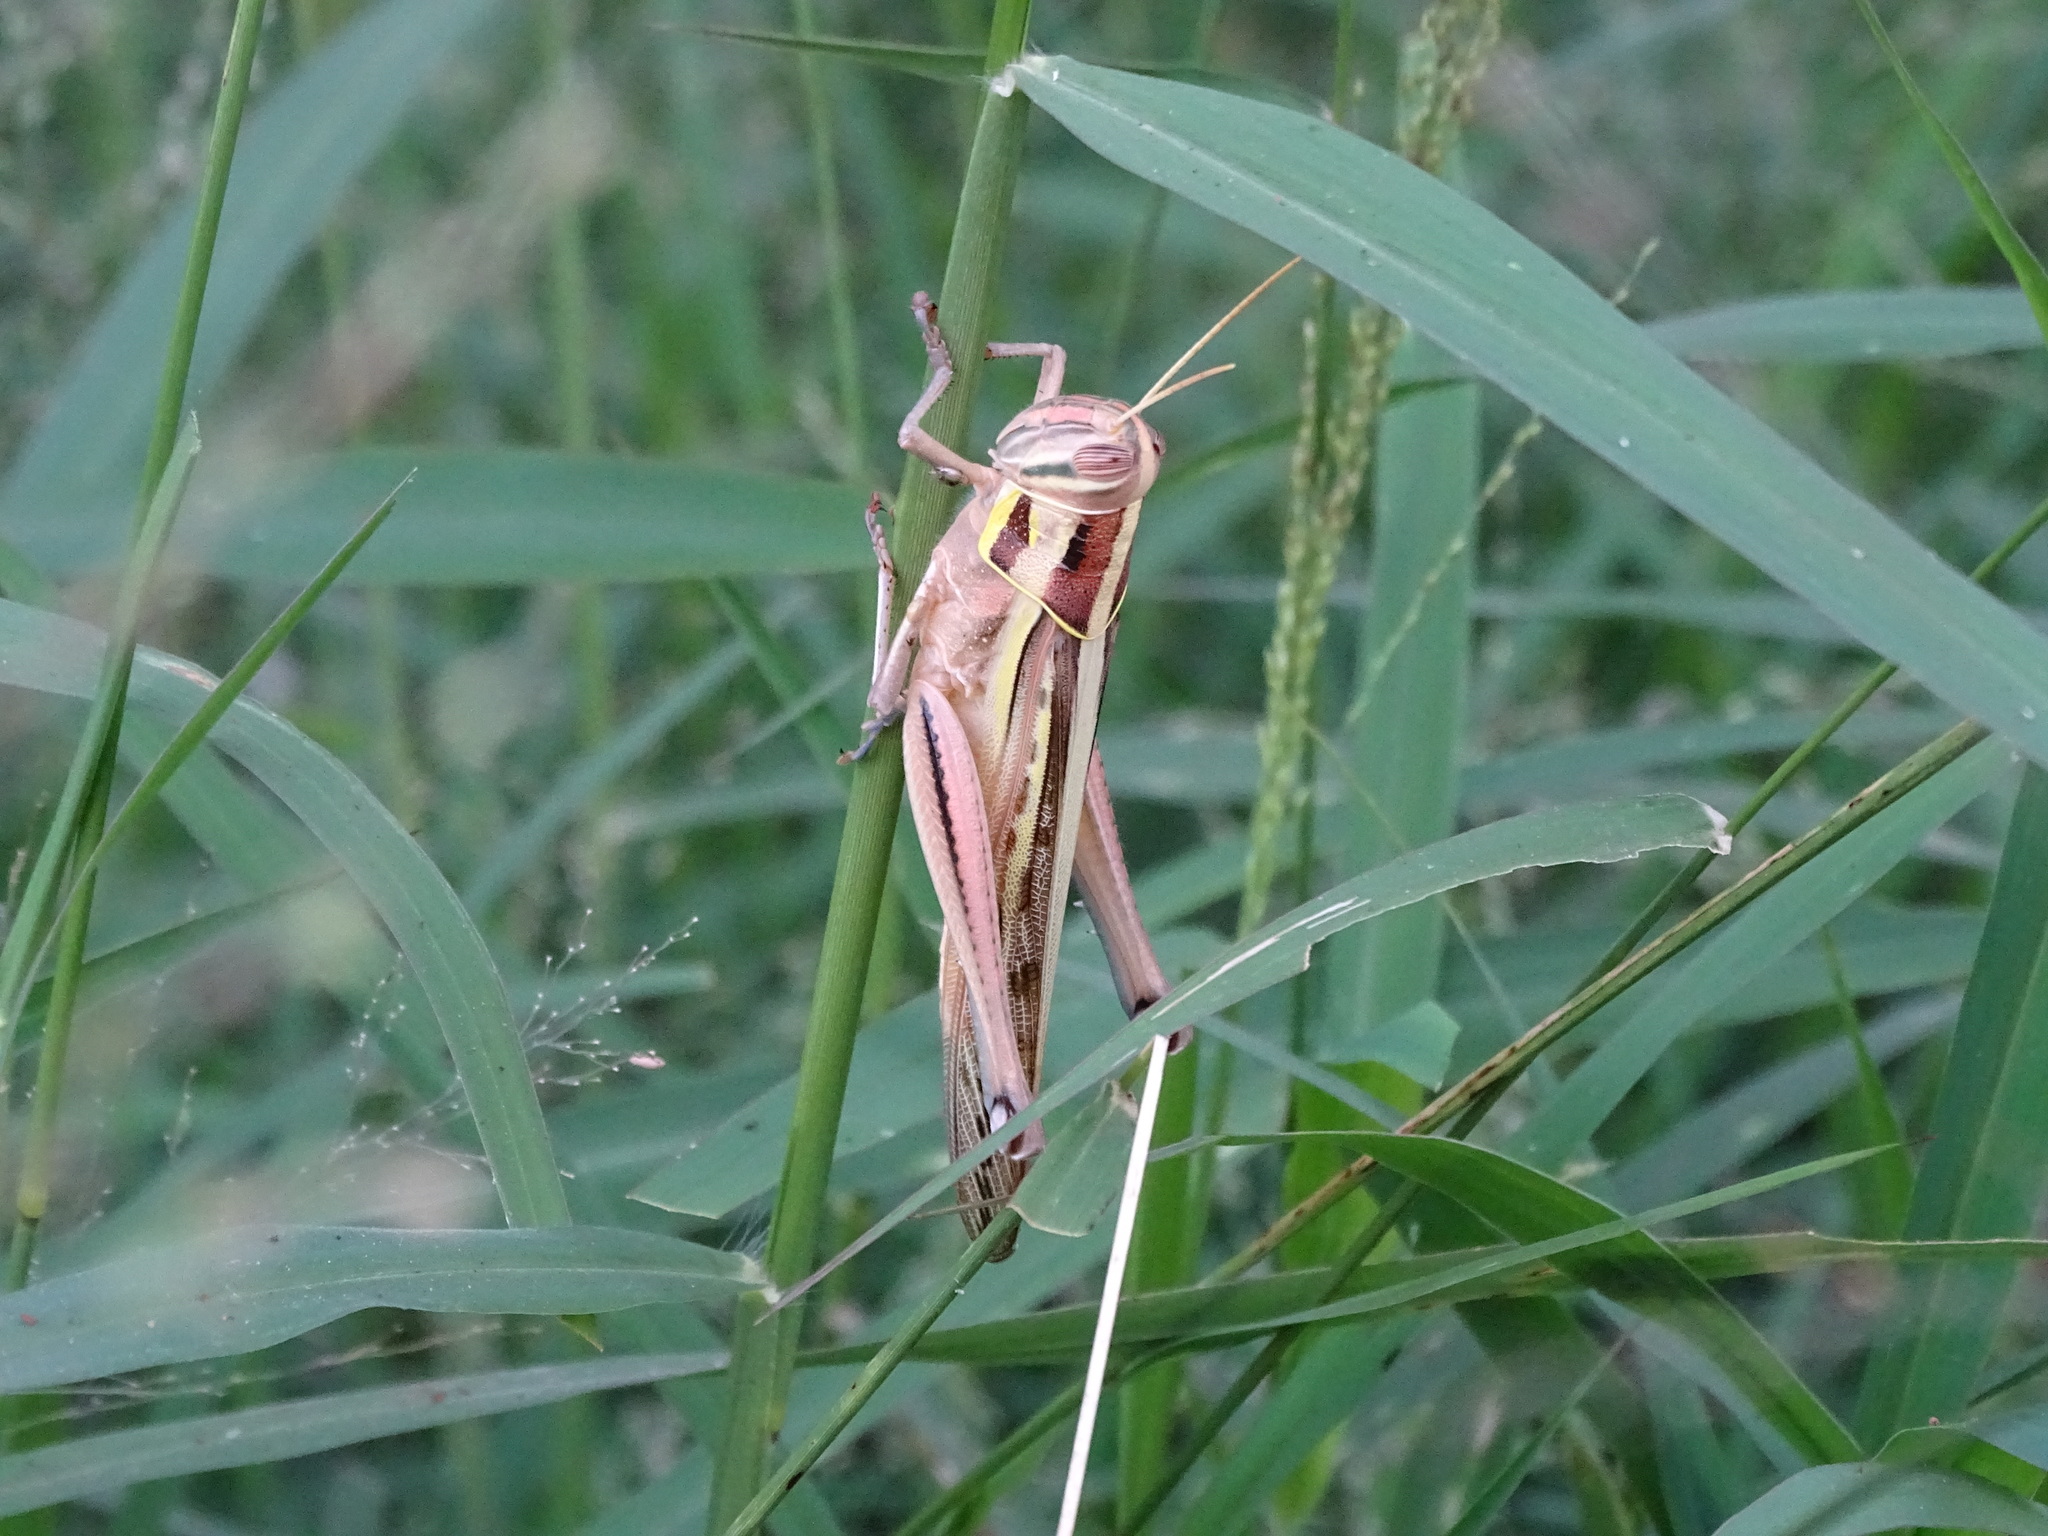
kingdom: Animalia
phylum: Arthropoda
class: Insecta
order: Orthoptera
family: Acrididae
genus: Patanga
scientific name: Patanga succincta
